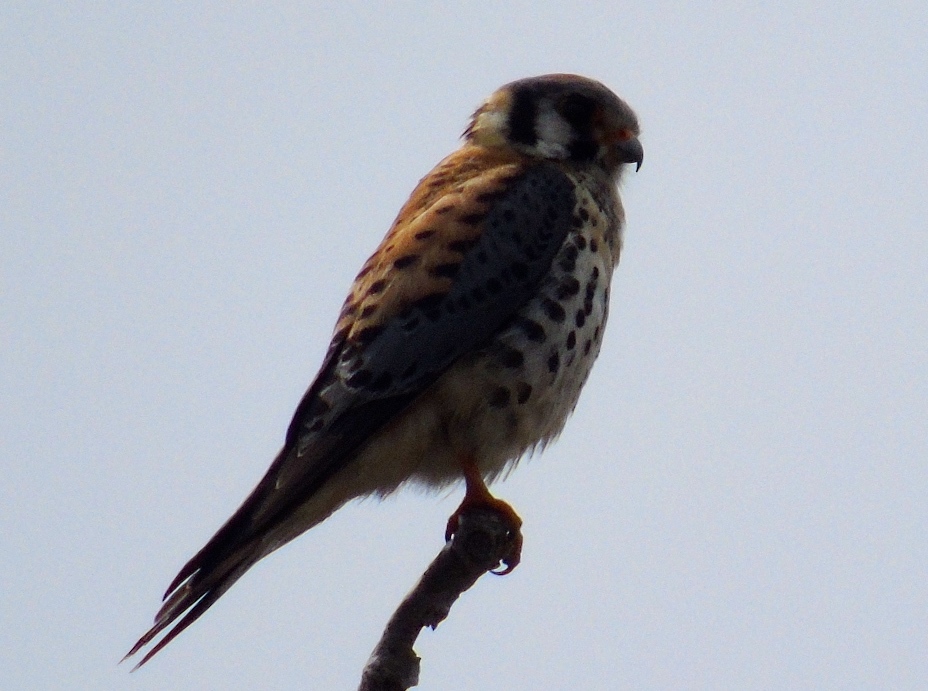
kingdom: Animalia
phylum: Chordata
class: Aves
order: Falconiformes
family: Falconidae
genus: Falco
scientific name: Falco sparverius
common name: American kestrel
